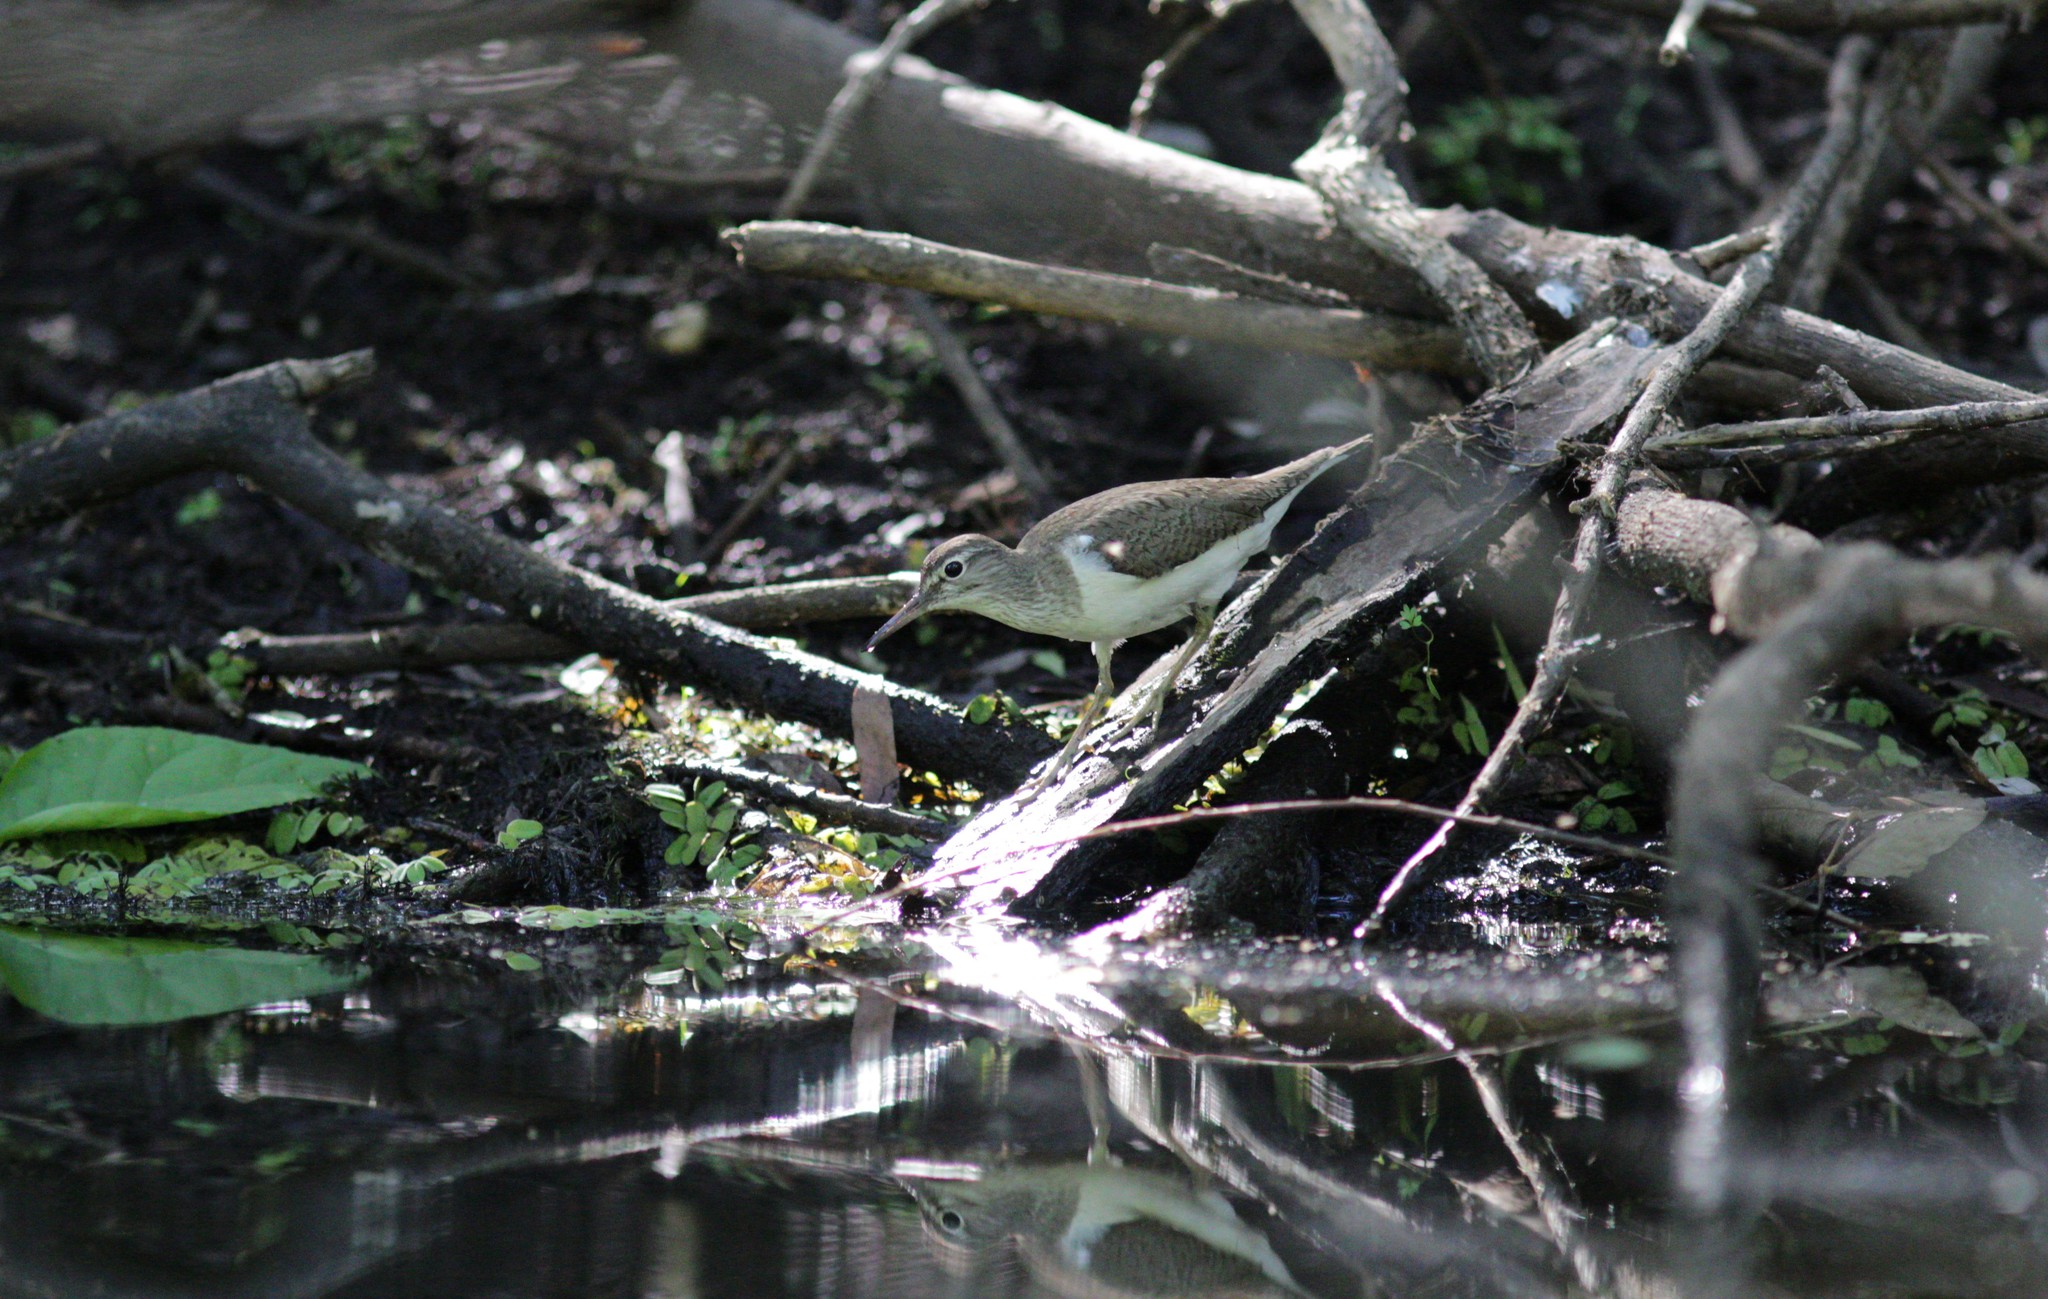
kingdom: Animalia
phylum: Chordata
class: Aves
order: Charadriiformes
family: Scolopacidae
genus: Actitis
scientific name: Actitis hypoleucos
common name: Common sandpiper
